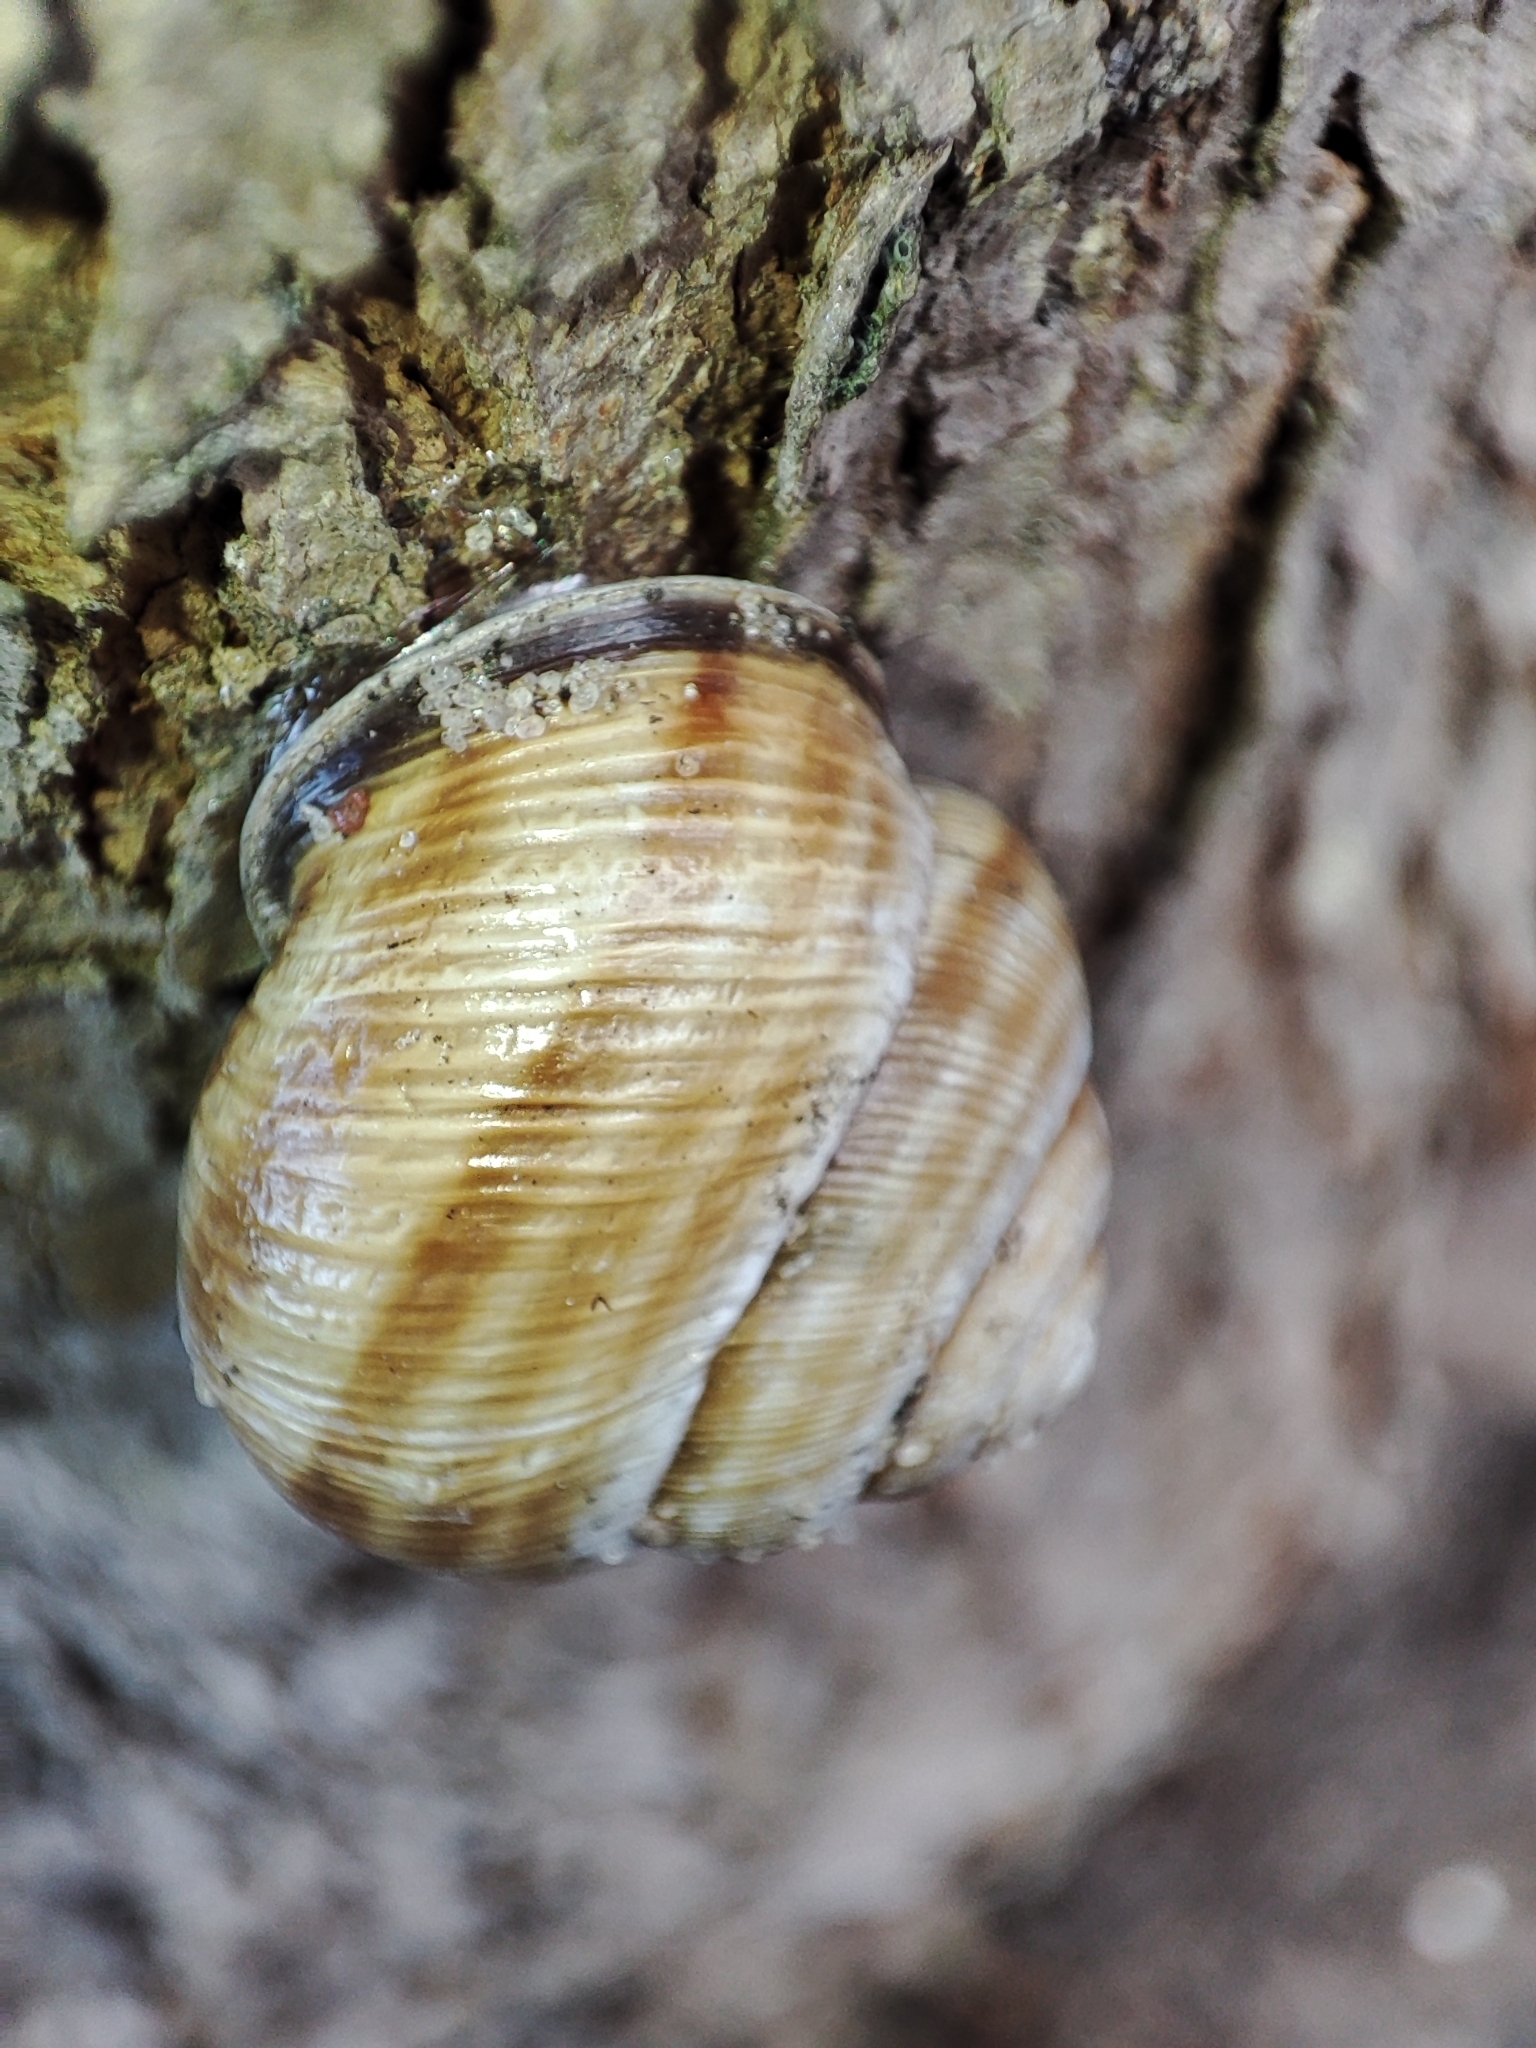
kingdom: Animalia
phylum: Mollusca
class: Gastropoda
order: Stylommatophora
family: Helicidae
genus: Caucasotachea
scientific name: Caucasotachea vindobonensis
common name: European helicid land snail
